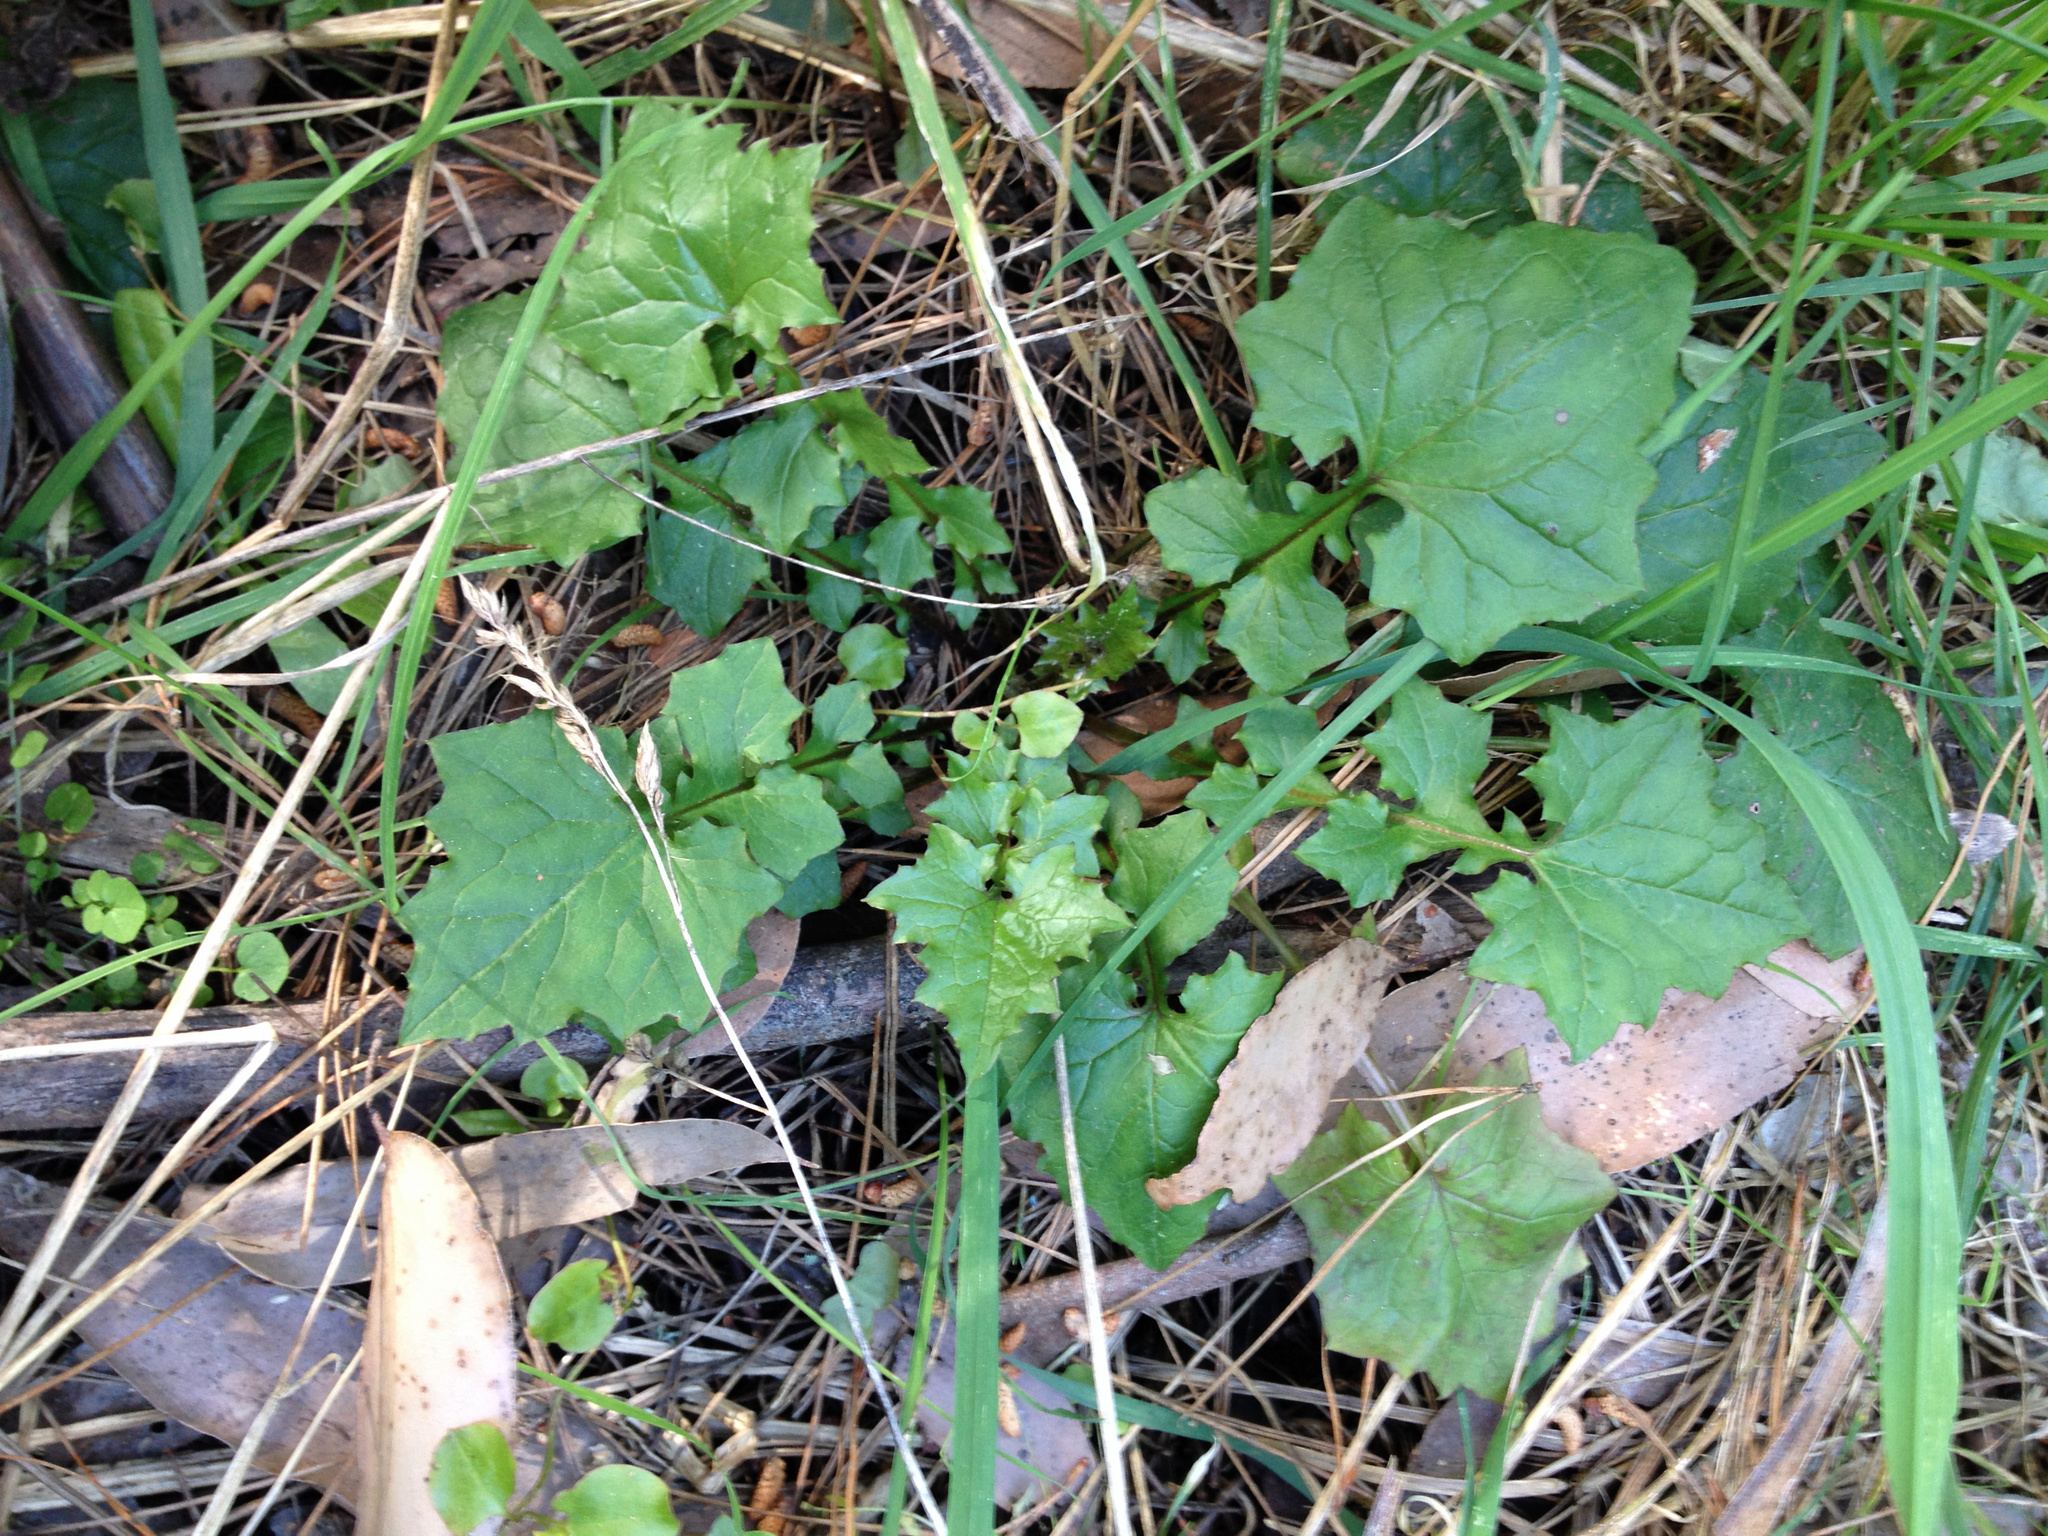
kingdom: Plantae
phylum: Tracheophyta
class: Magnoliopsida
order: Asterales
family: Asteraceae
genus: Mycelis
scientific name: Mycelis muralis
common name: Wall lettuce
